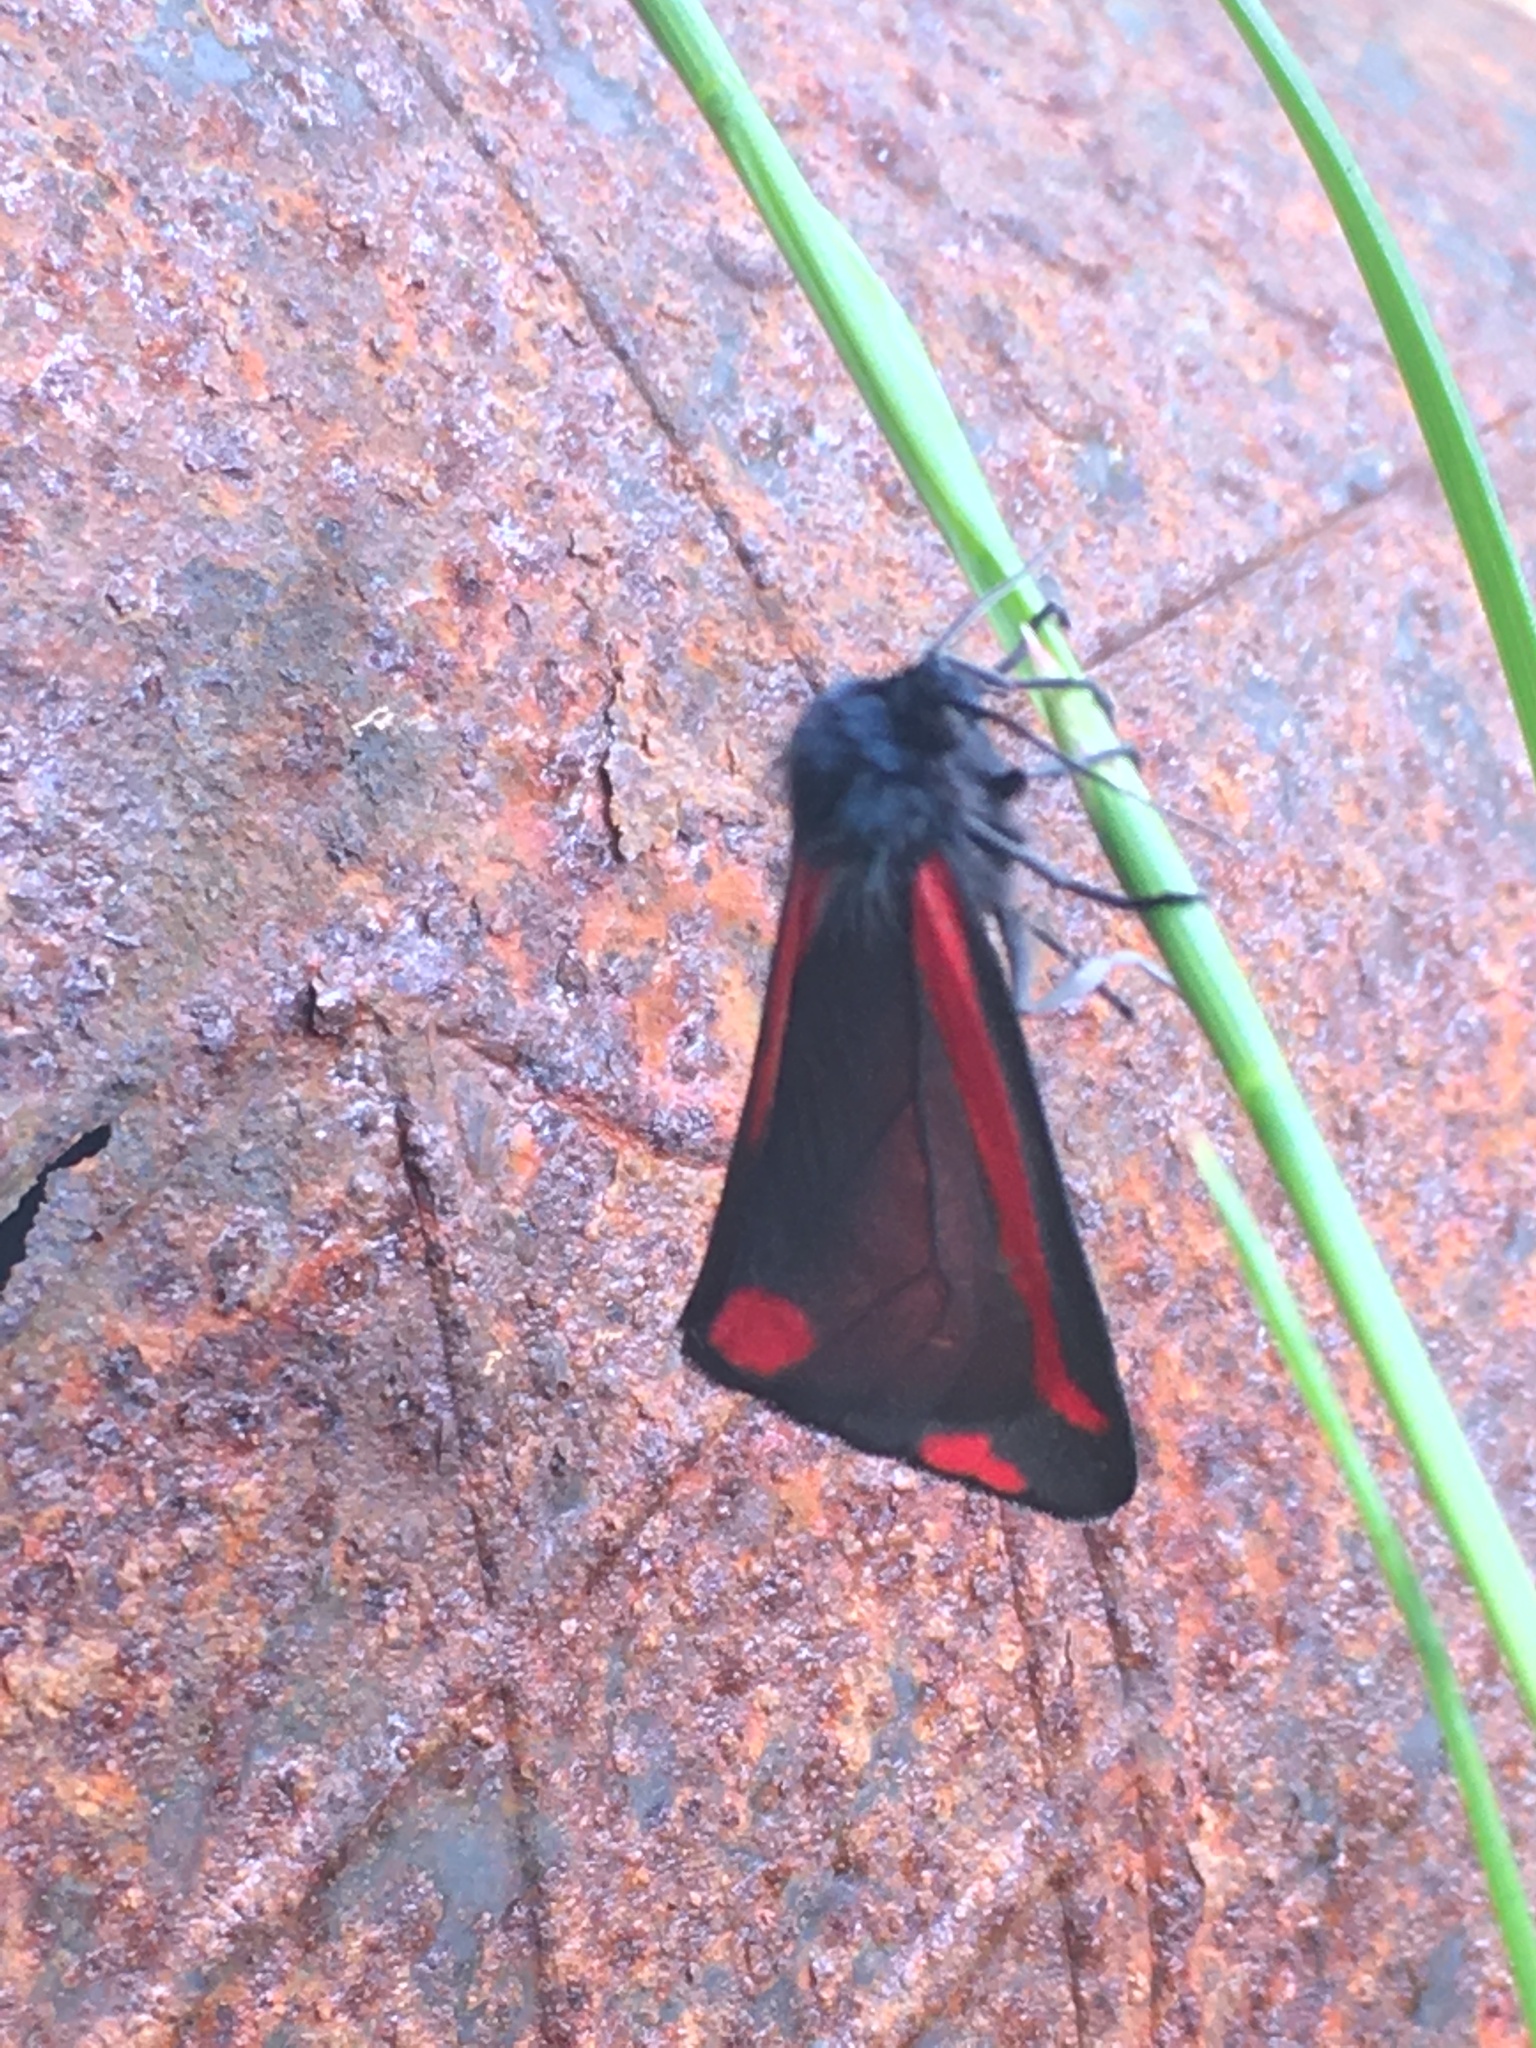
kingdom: Animalia
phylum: Arthropoda
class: Insecta
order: Lepidoptera
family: Erebidae
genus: Tyria
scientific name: Tyria jacobaeae
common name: Cinnabar
